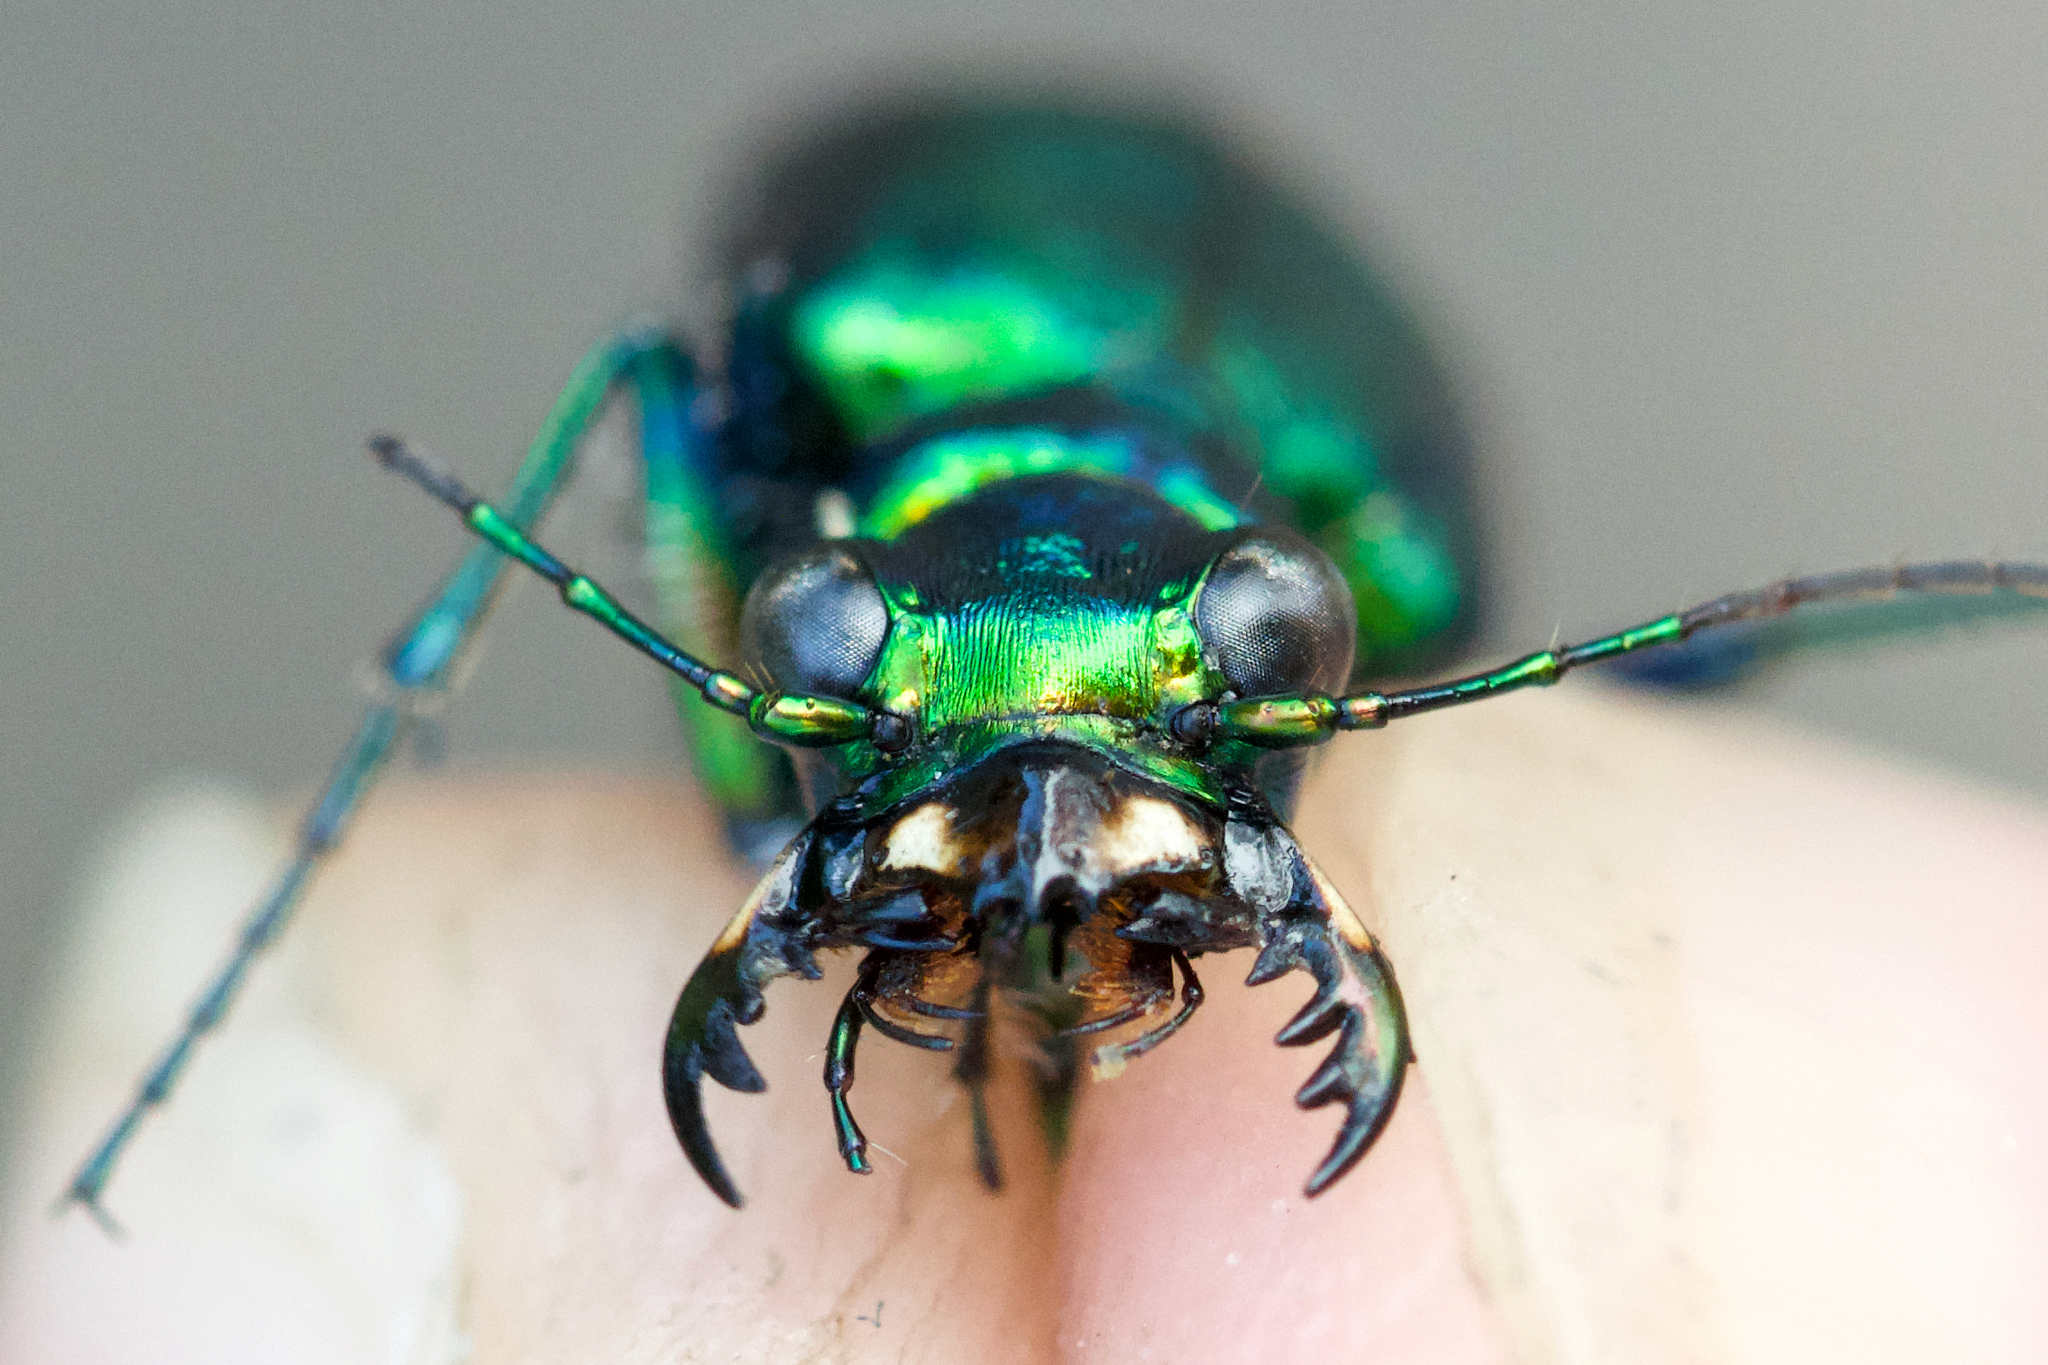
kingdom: Animalia
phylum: Arthropoda
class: Insecta
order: Coleoptera
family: Carabidae
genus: Cicindela
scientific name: Cicindela denikei
